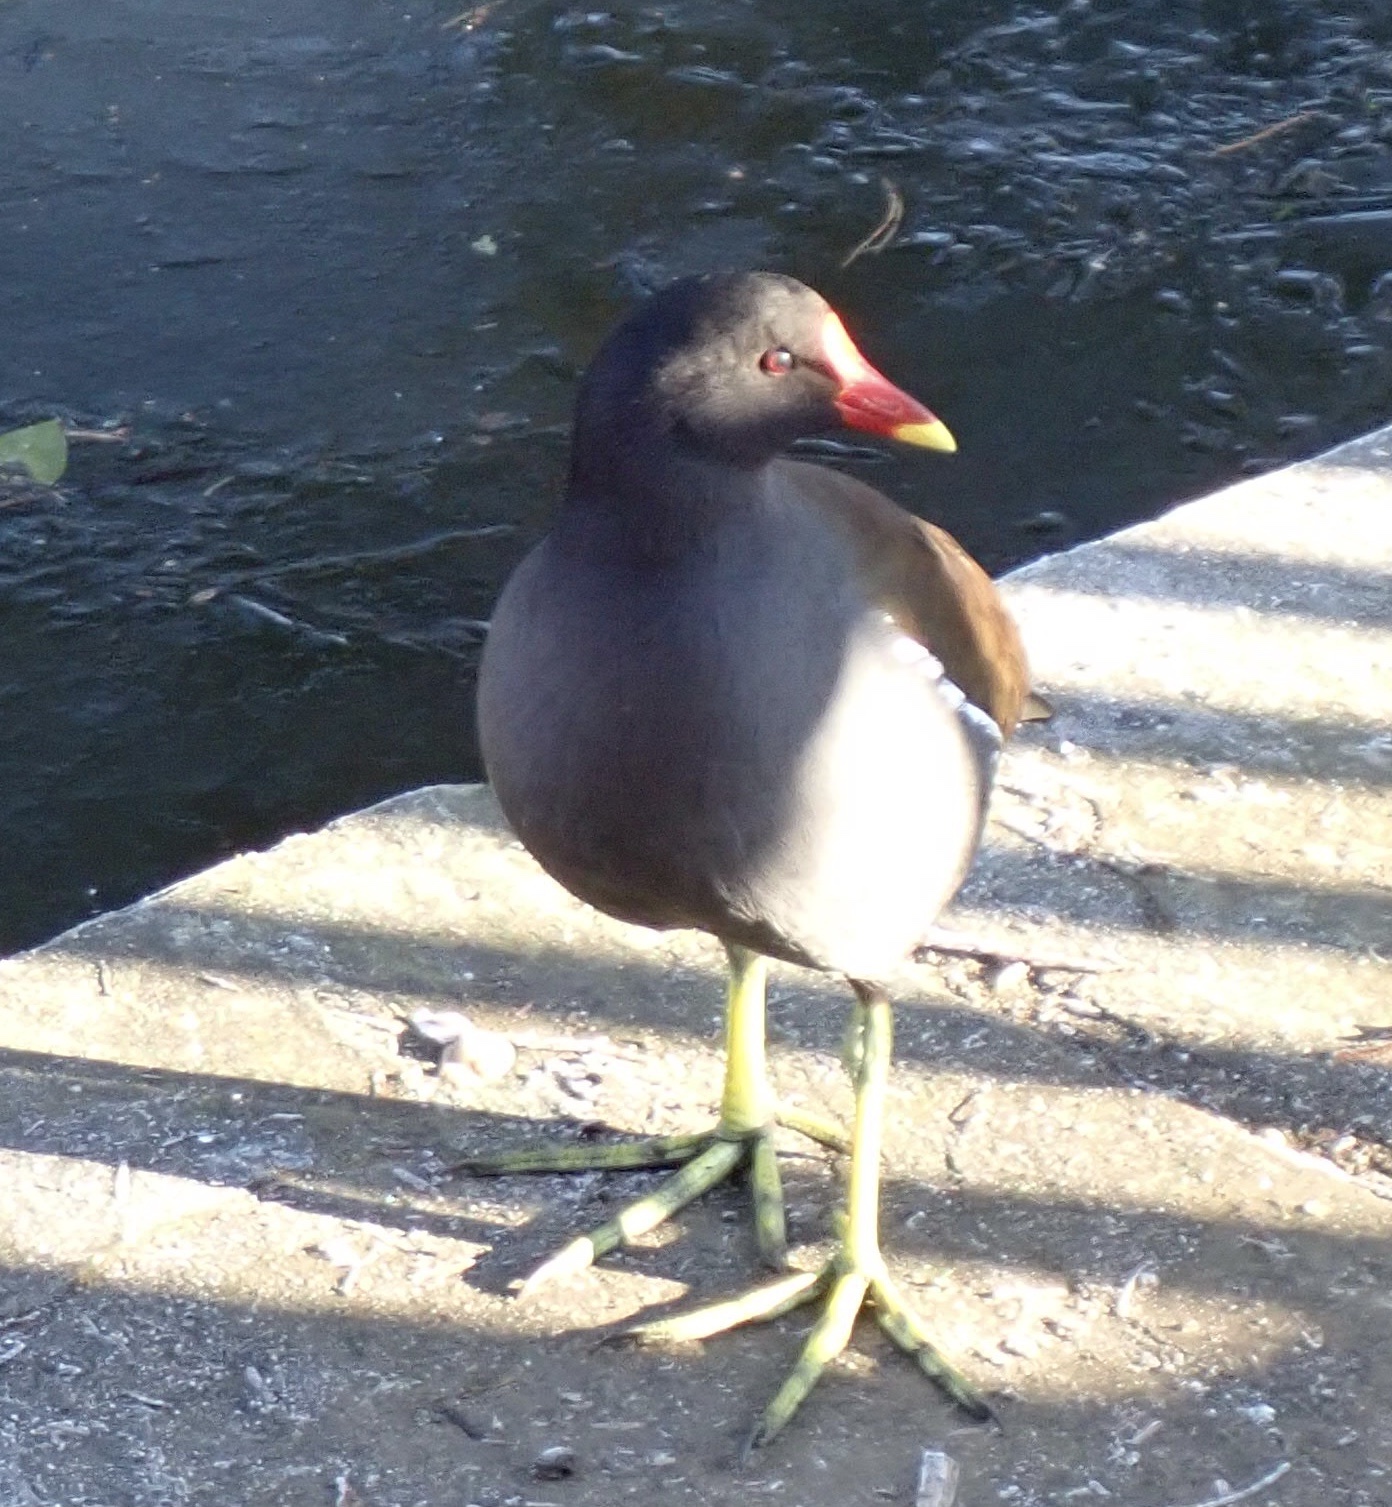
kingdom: Animalia
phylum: Chordata
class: Aves
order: Gruiformes
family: Rallidae
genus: Gallinula
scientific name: Gallinula chloropus
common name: Common moorhen
